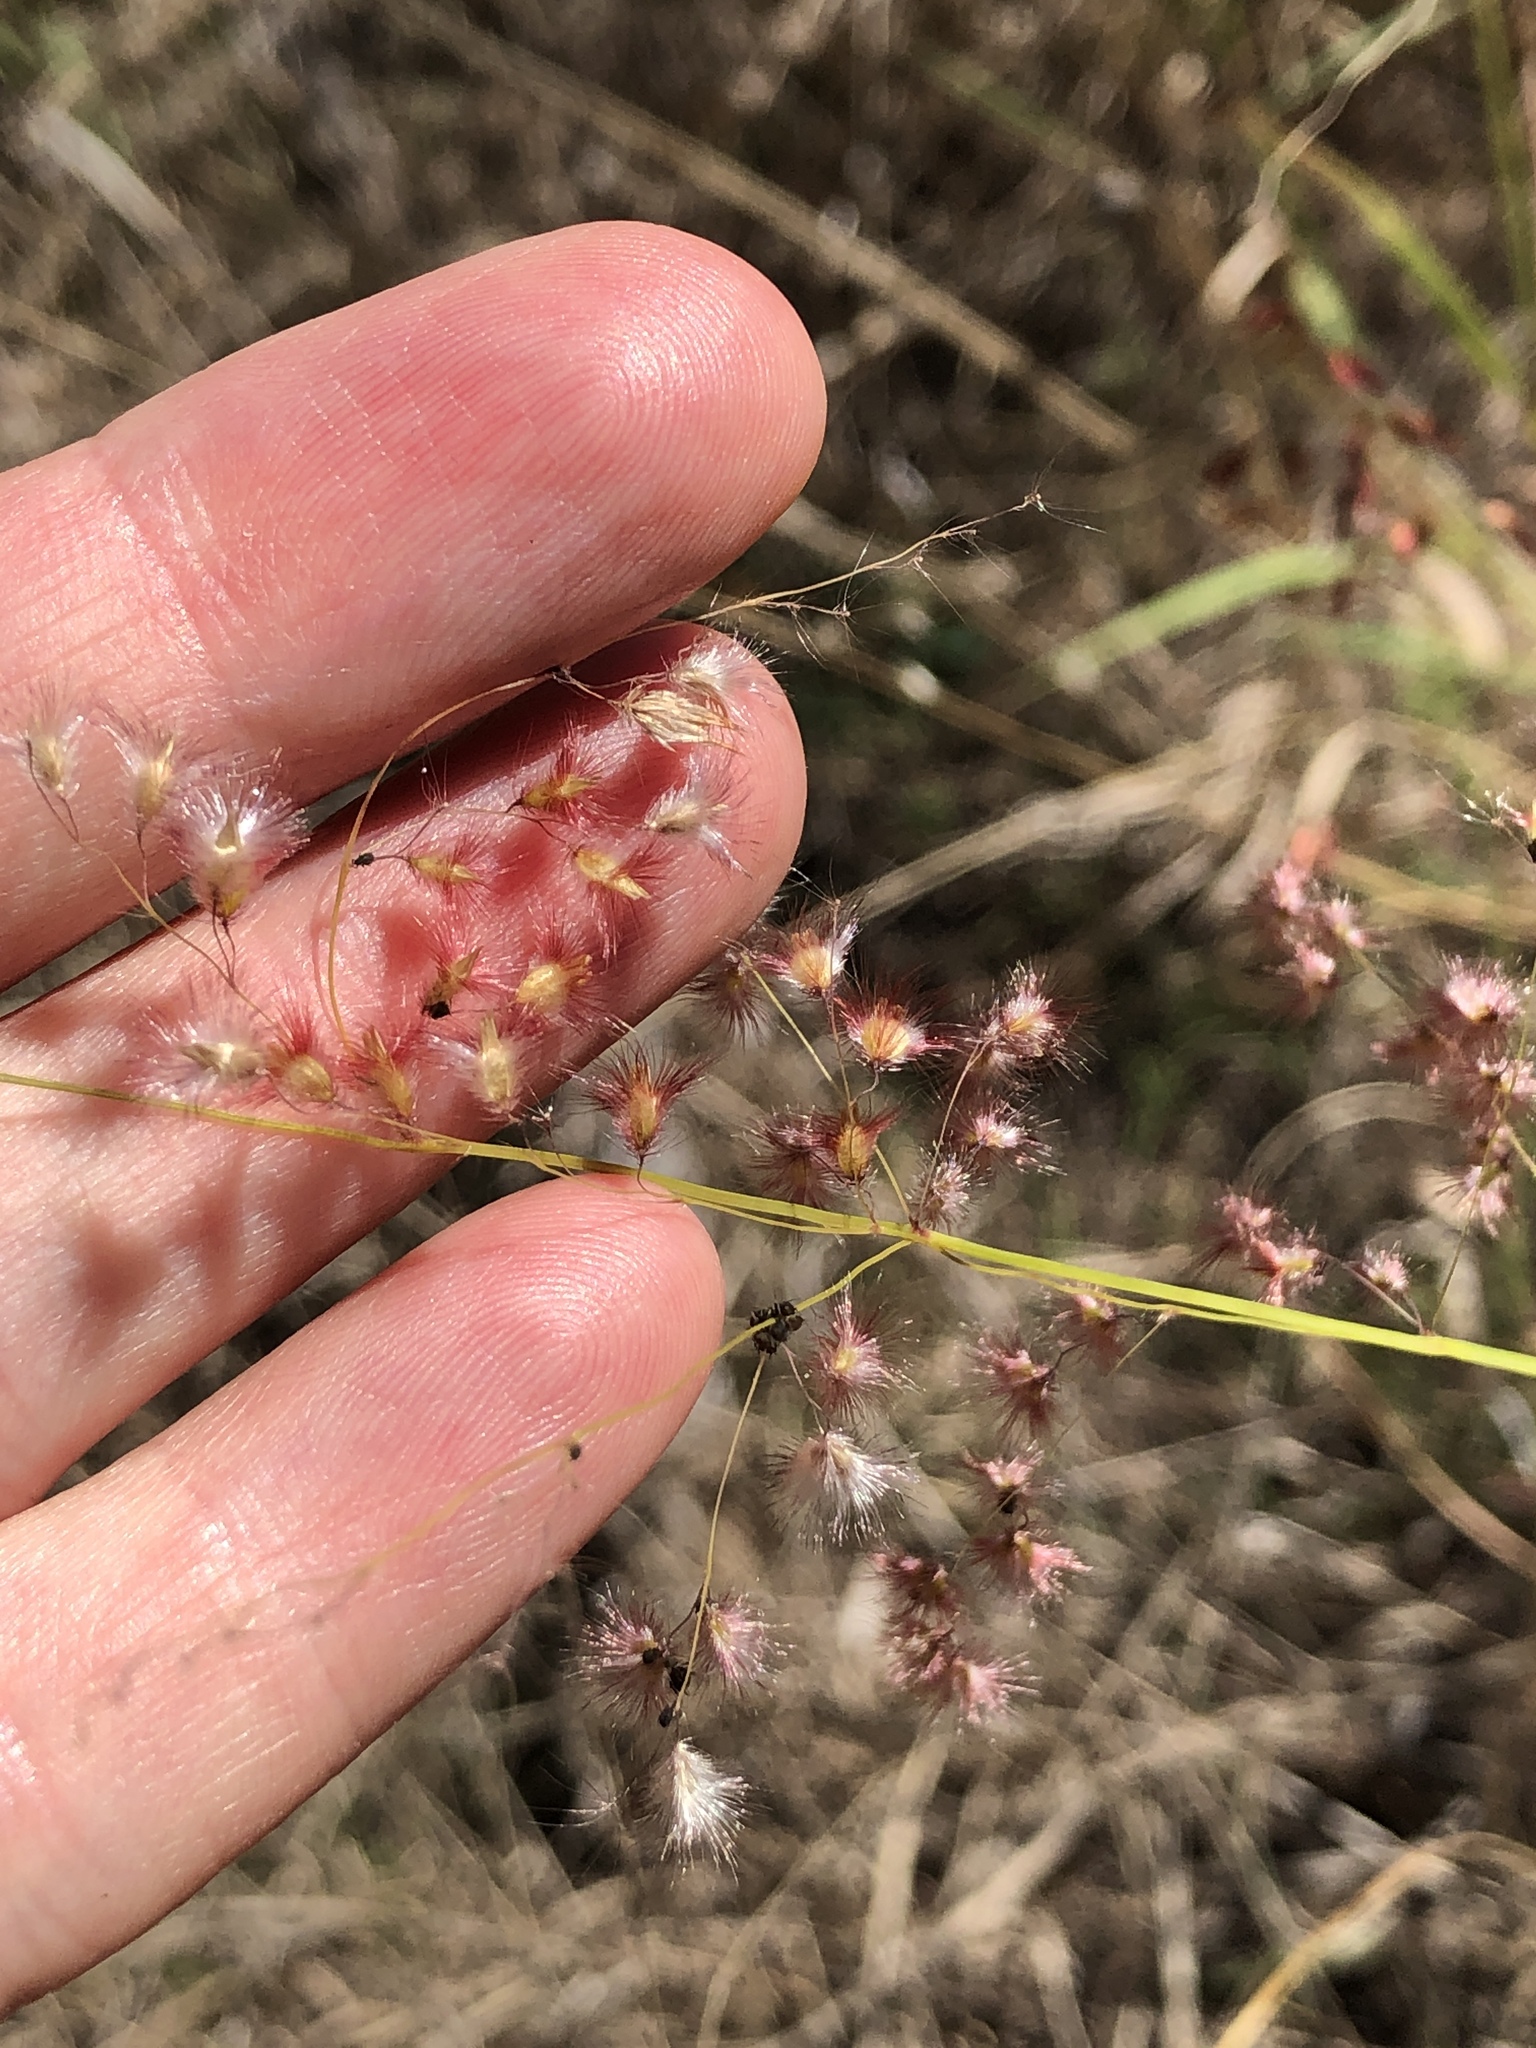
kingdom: Plantae
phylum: Tracheophyta
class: Liliopsida
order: Poales
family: Poaceae
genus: Melinis
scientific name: Melinis repens
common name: Rose natal grass
